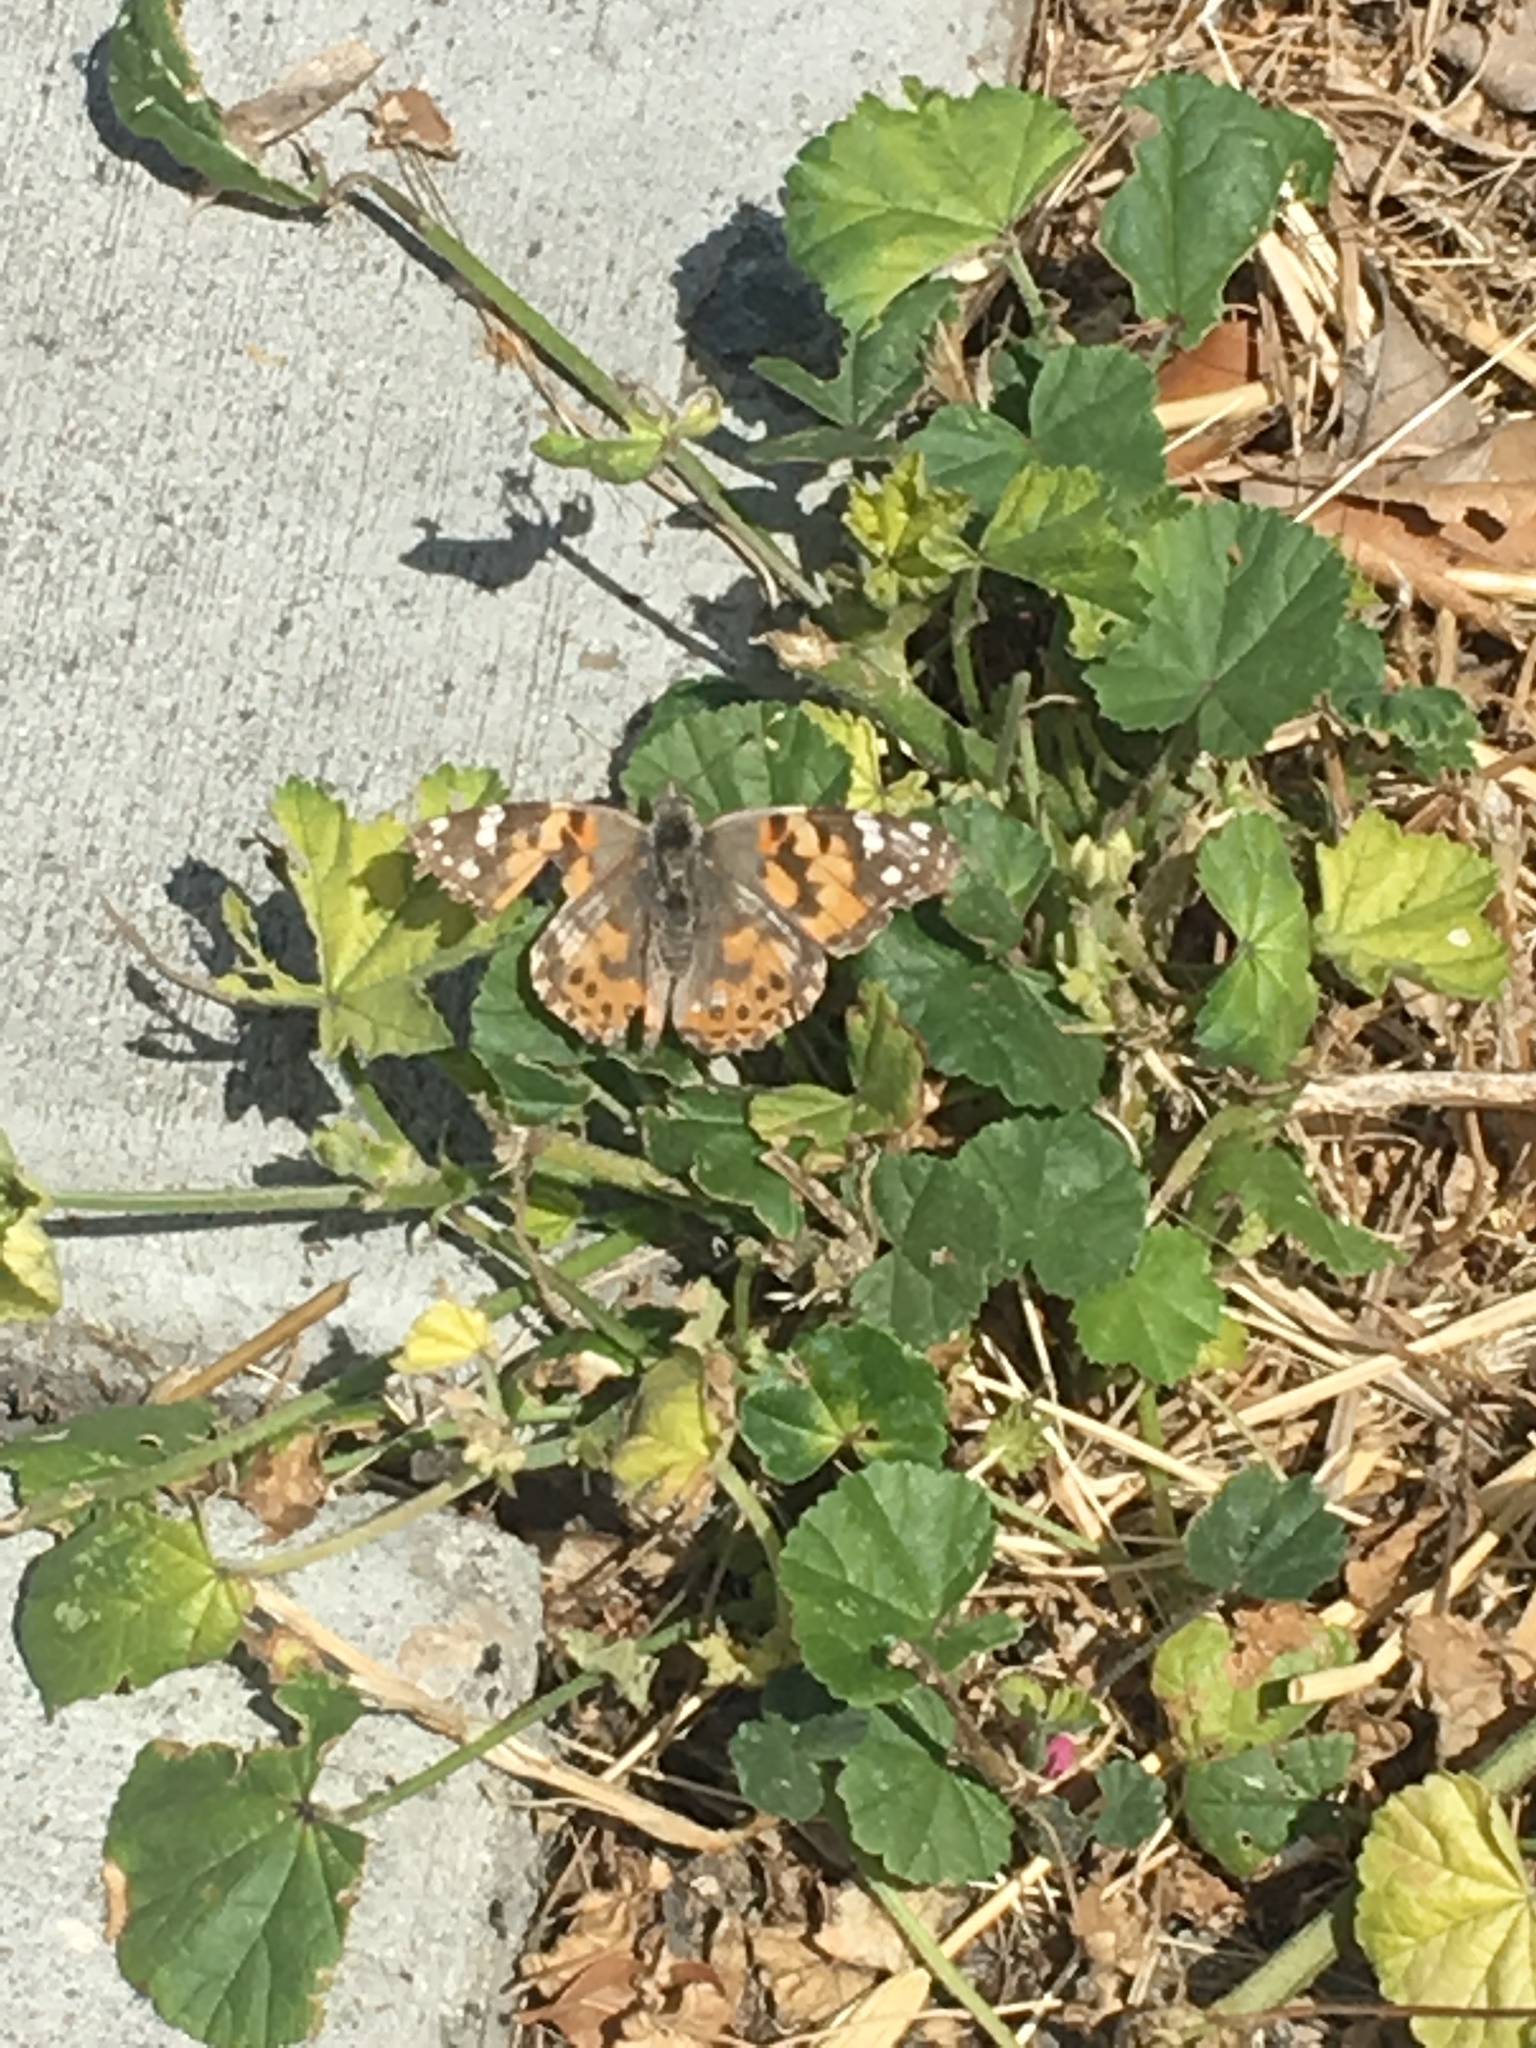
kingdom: Animalia
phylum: Arthropoda
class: Insecta
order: Lepidoptera
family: Nymphalidae
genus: Vanessa
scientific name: Vanessa cardui
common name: Painted lady
